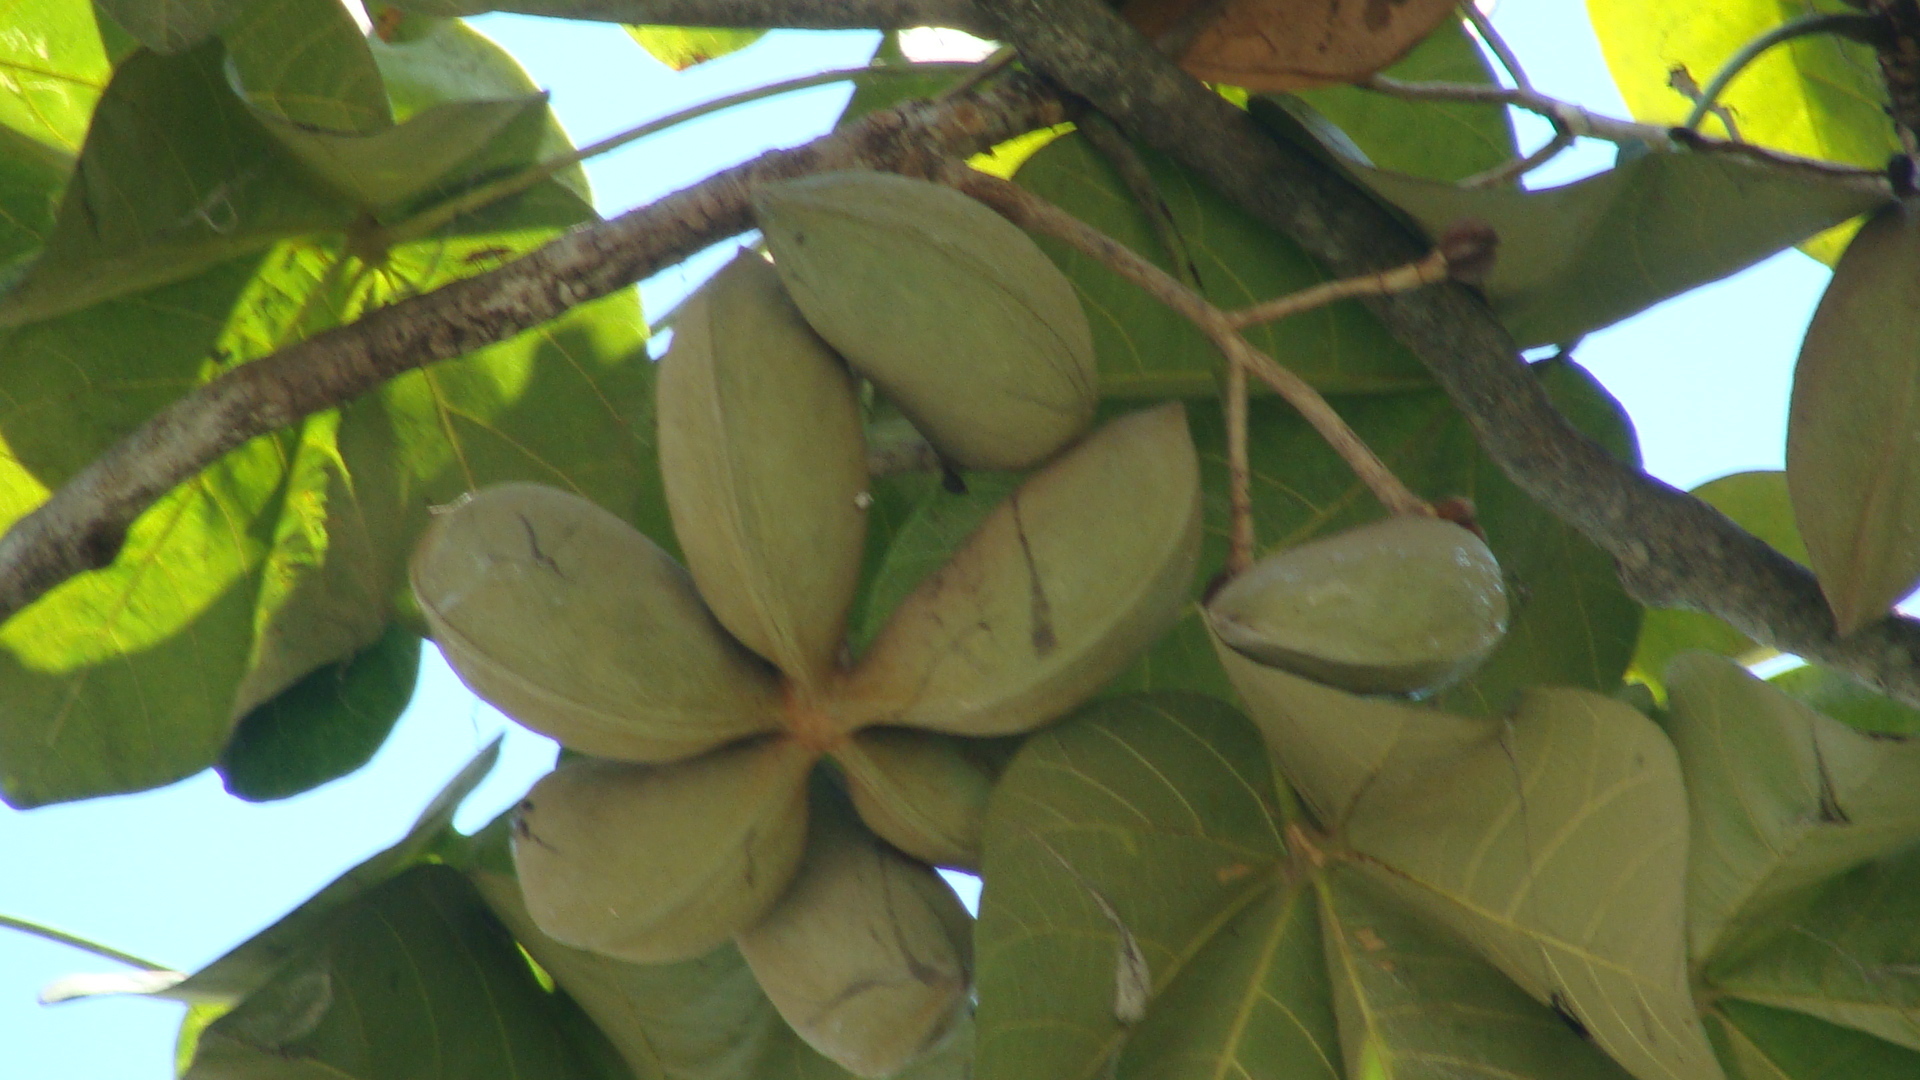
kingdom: Plantae
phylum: Tracheophyta
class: Magnoliopsida
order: Malvales
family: Malvaceae
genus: Sterculia
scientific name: Sterculia apetala
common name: Panama tree
